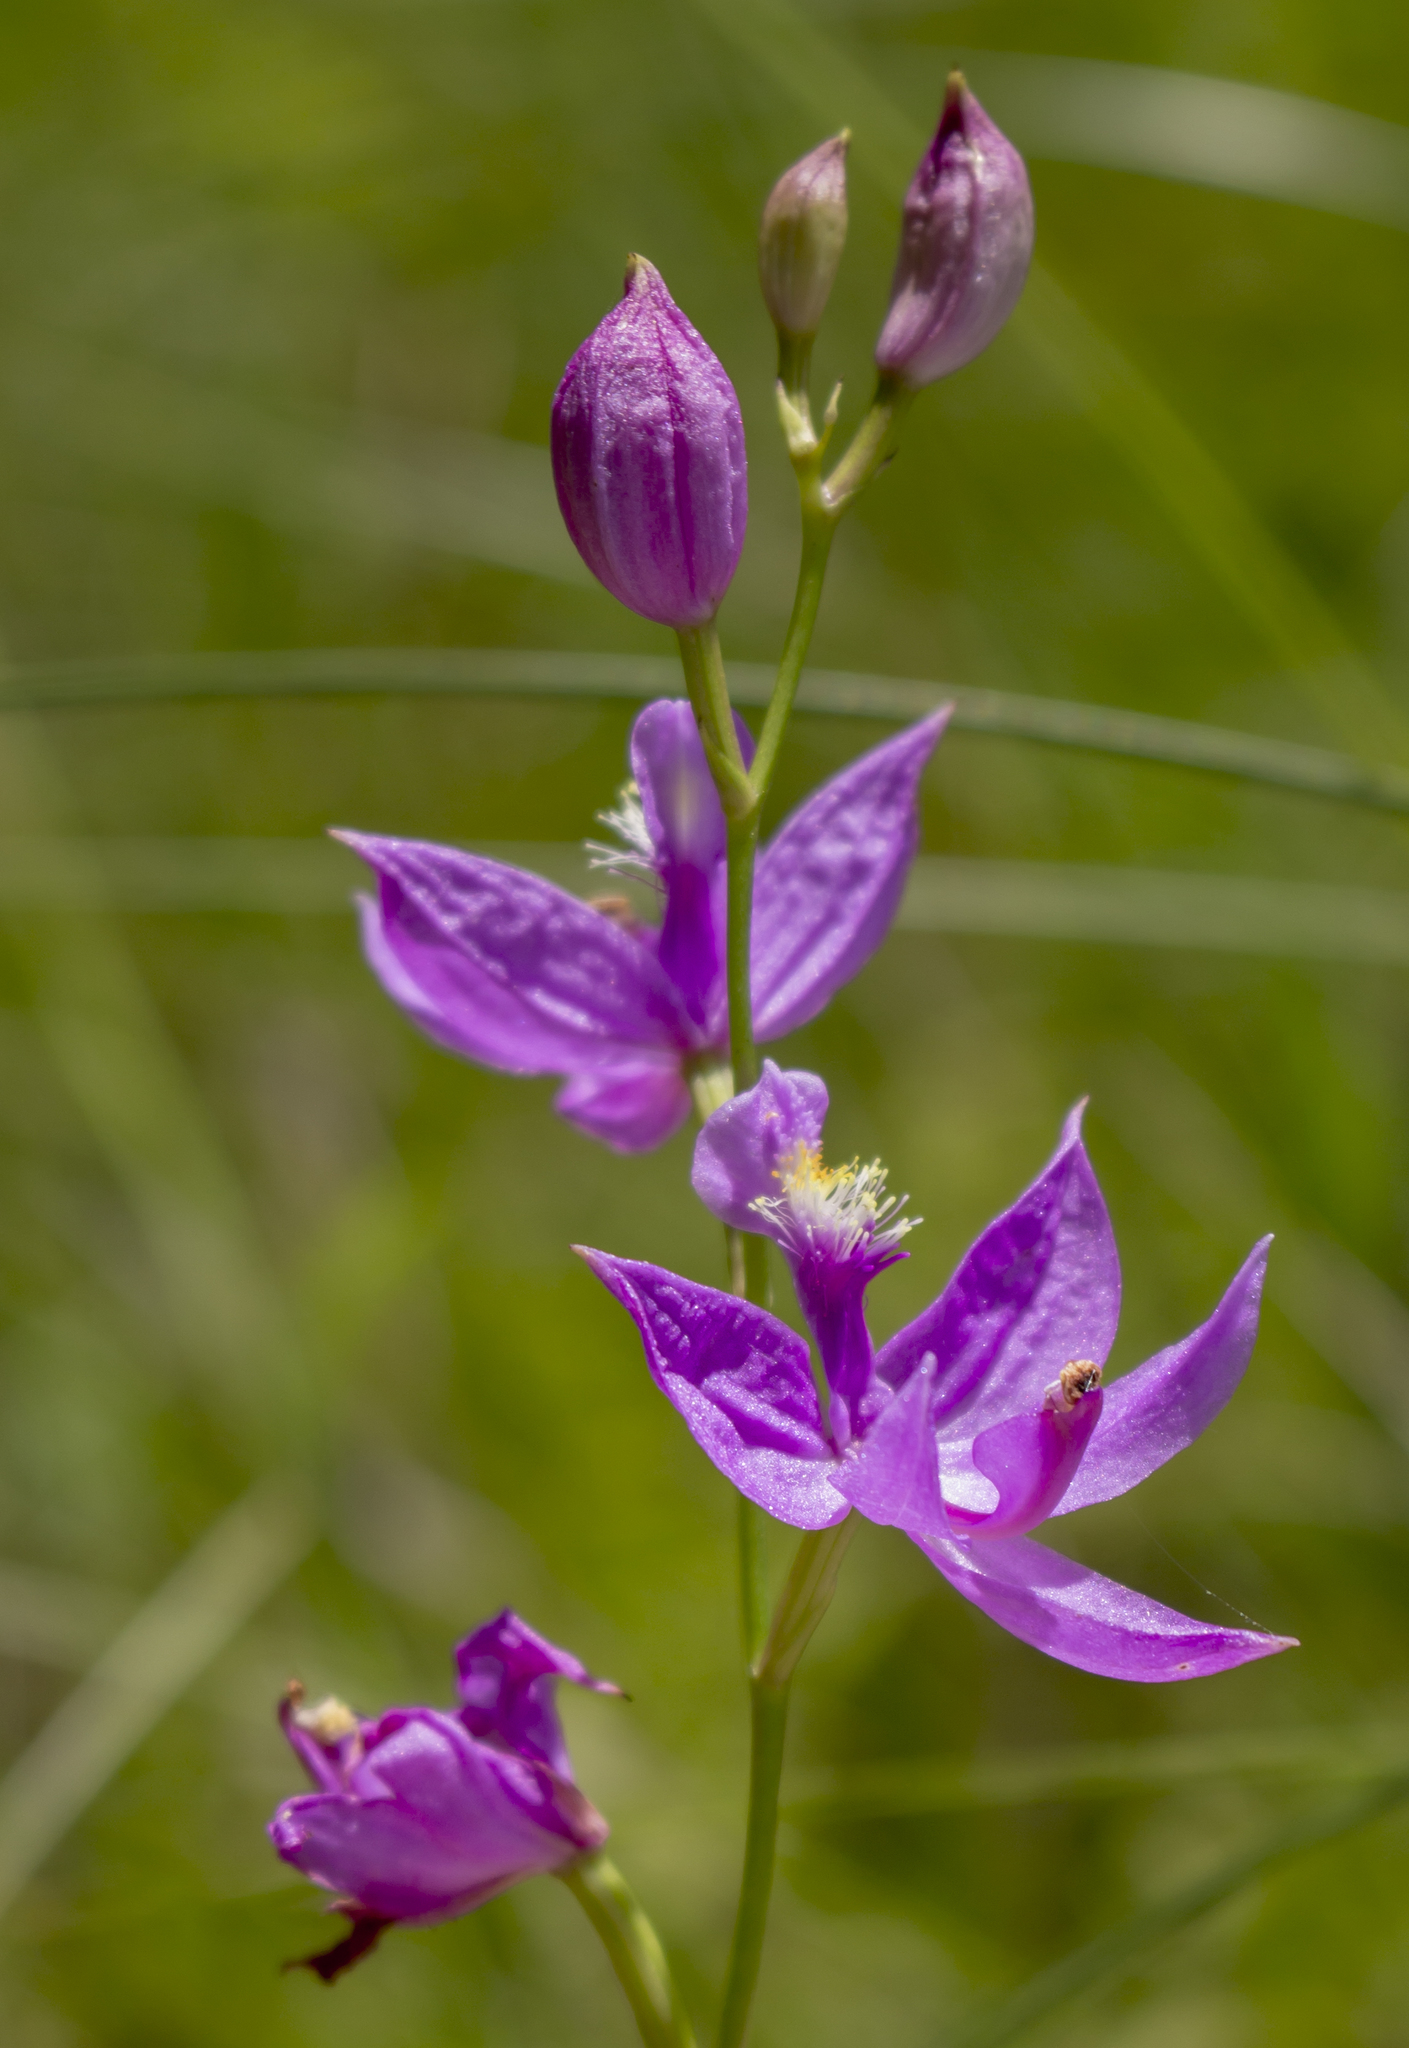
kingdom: Plantae
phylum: Tracheophyta
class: Liliopsida
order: Asparagales
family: Orchidaceae
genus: Calopogon
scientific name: Calopogon tuberosus
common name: Grass-pink
